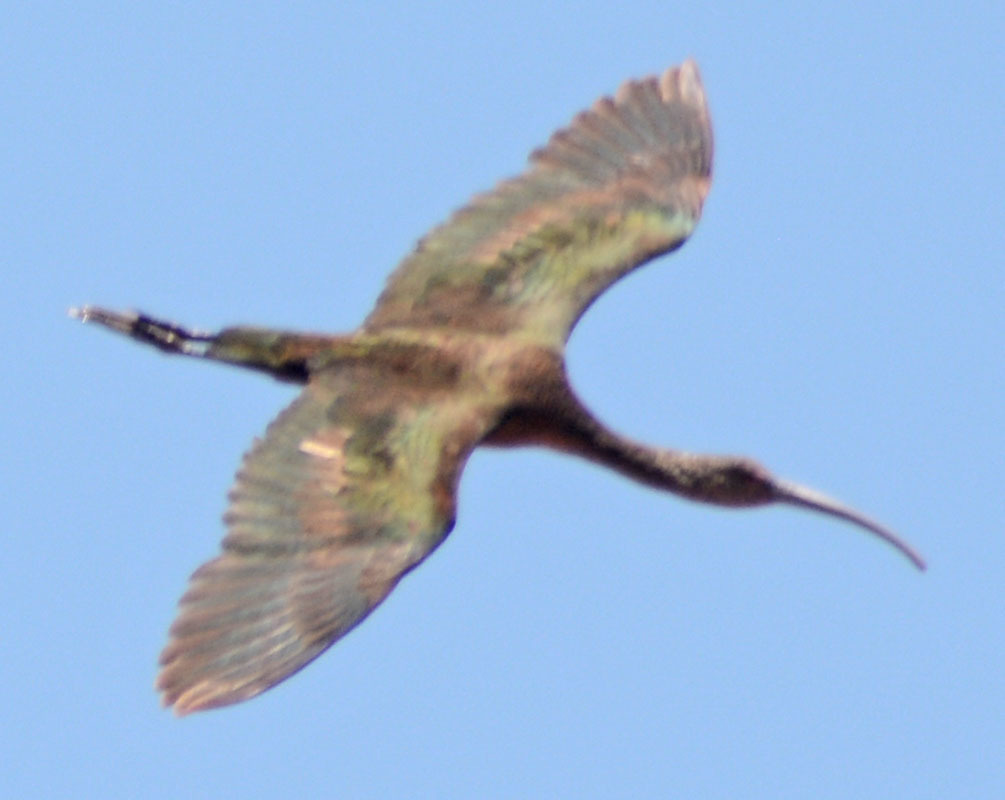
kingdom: Animalia
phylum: Chordata
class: Aves
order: Pelecaniformes
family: Threskiornithidae
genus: Plegadis
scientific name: Plegadis chihi
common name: White-faced ibis
